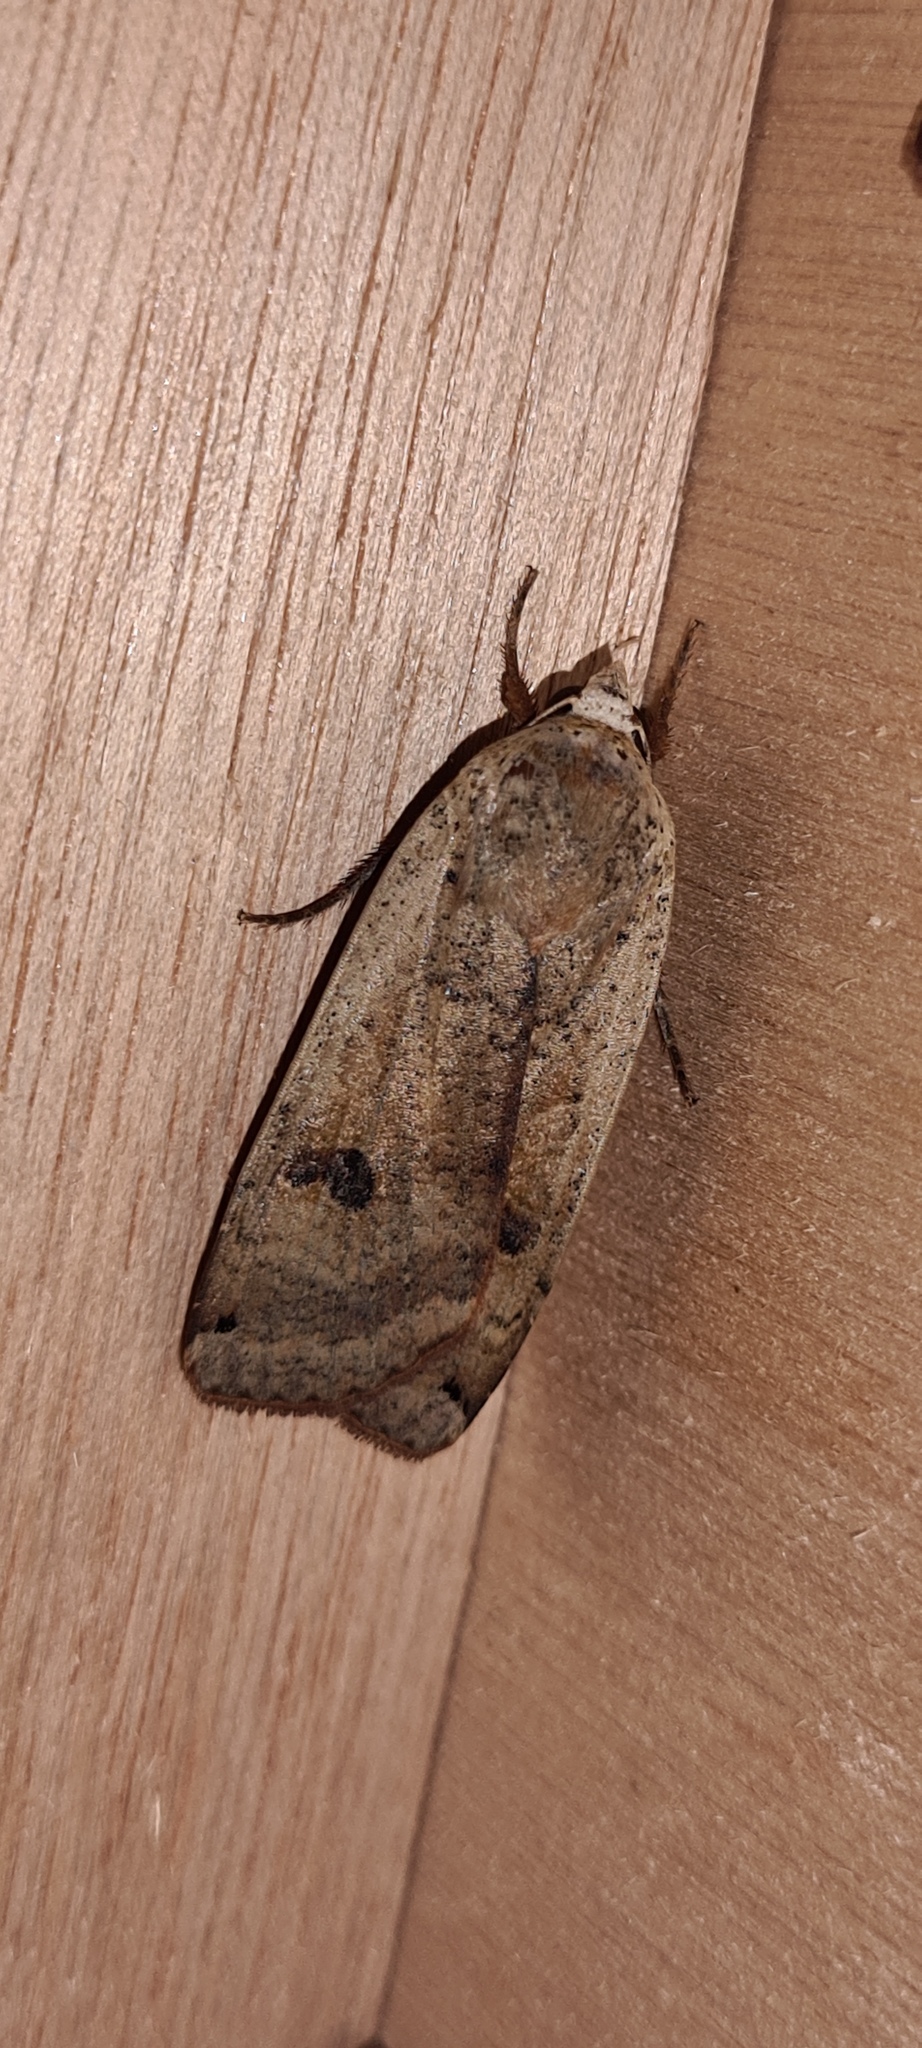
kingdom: Animalia
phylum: Arthropoda
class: Insecta
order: Lepidoptera
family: Noctuidae
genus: Noctua
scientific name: Noctua pronuba
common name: Large yellow underwing
